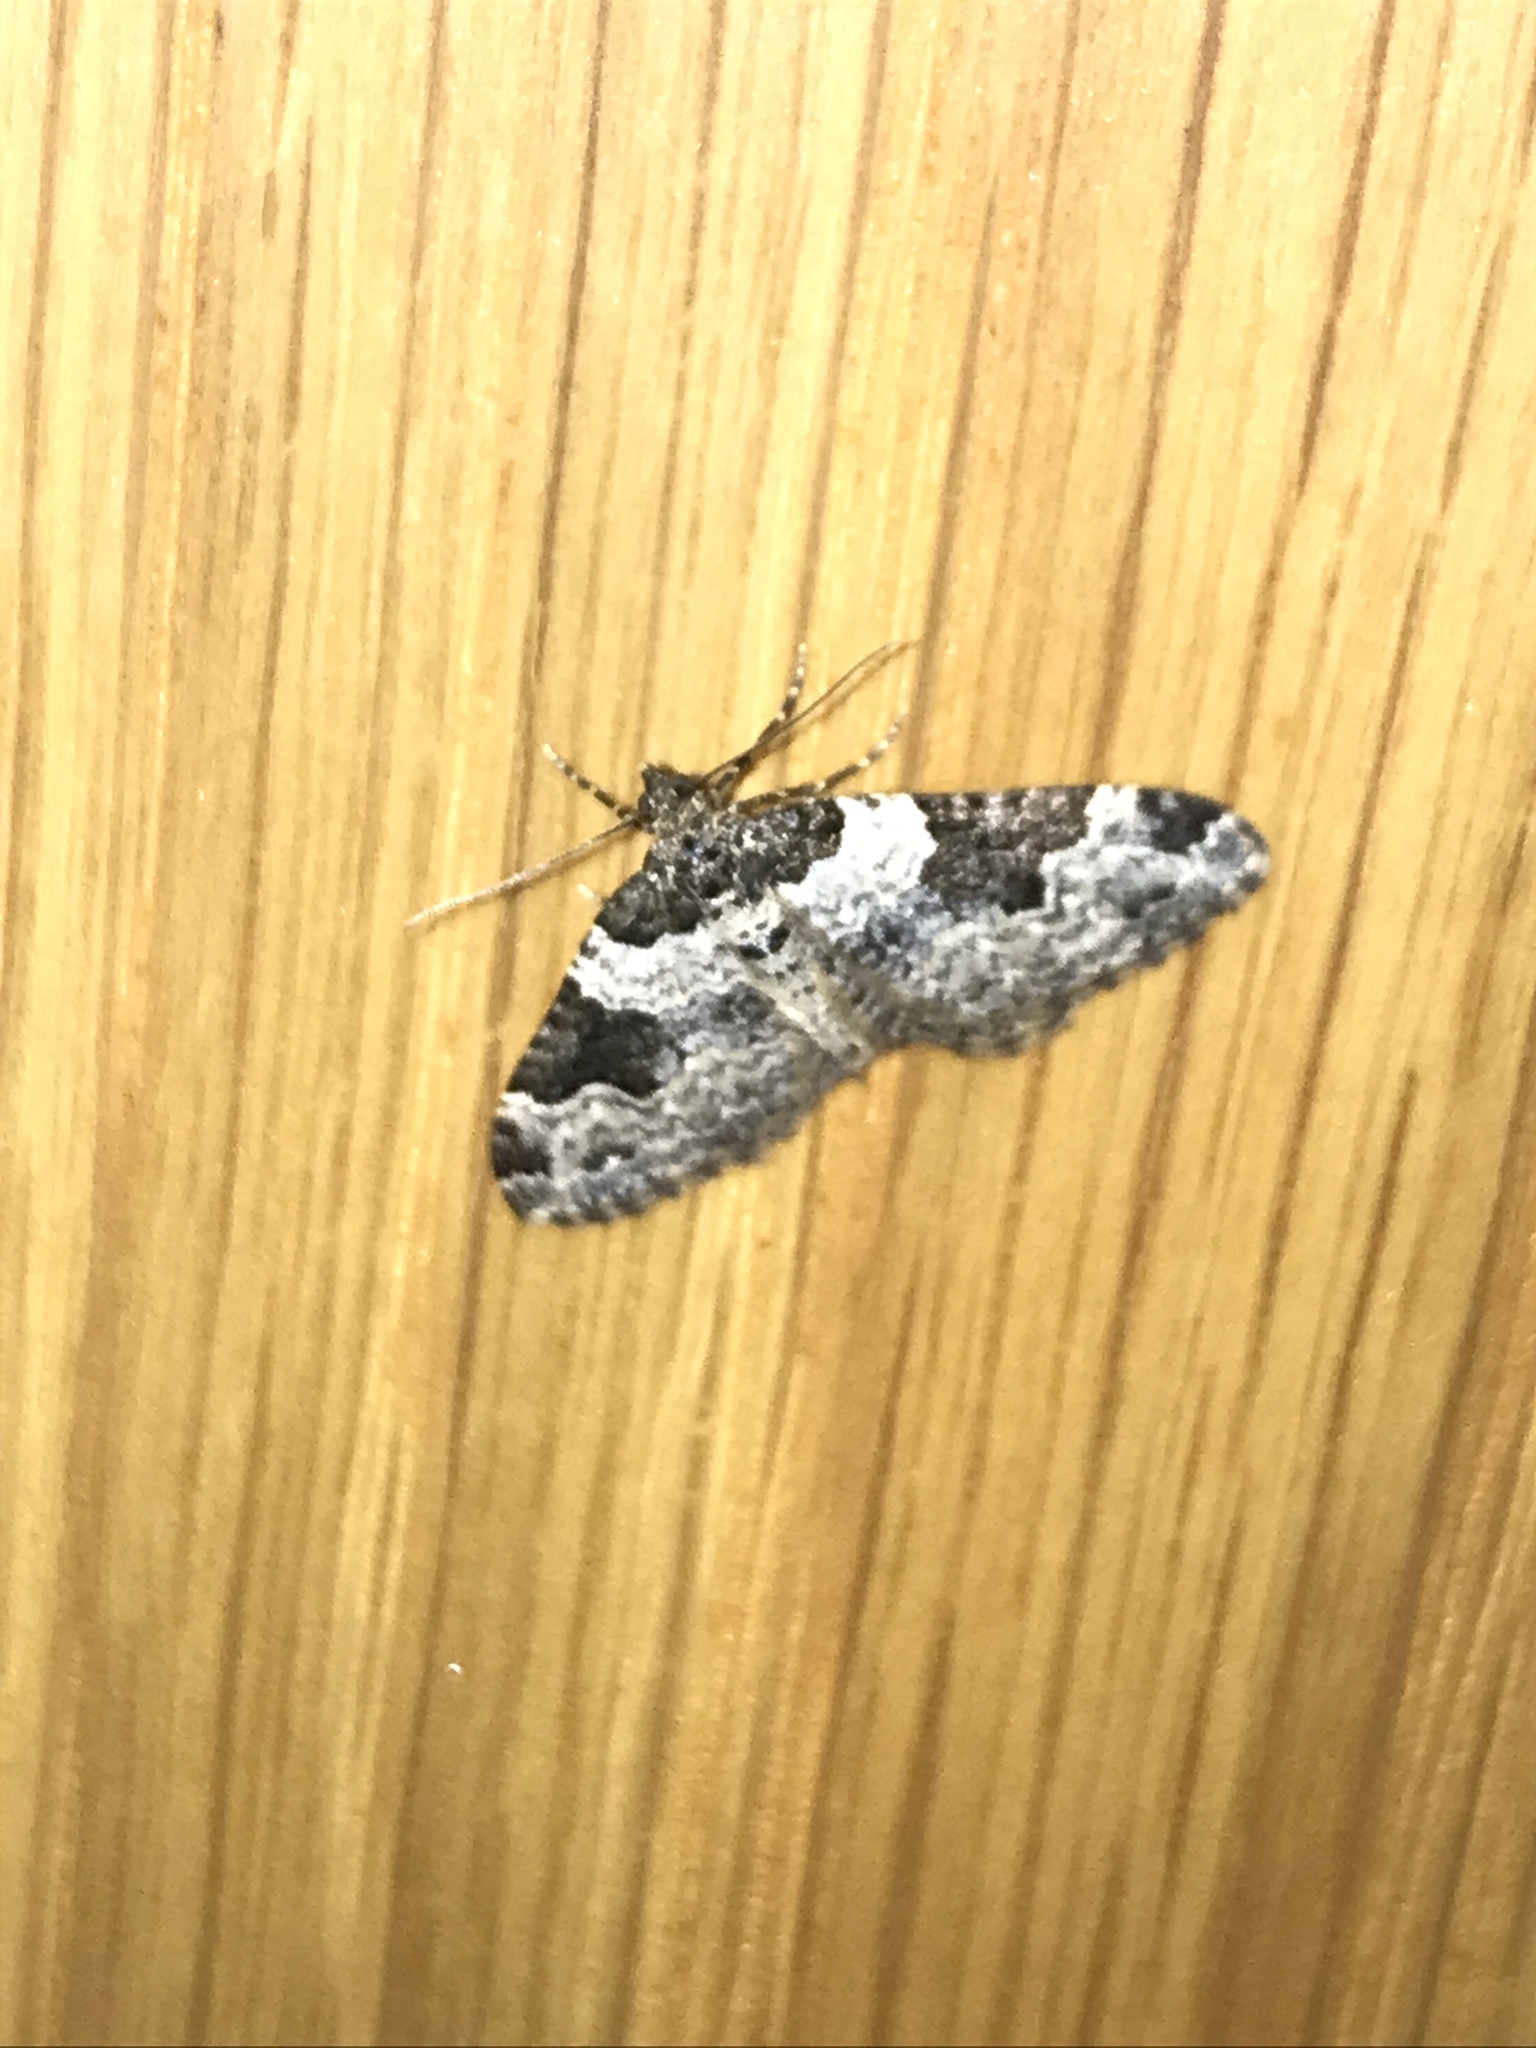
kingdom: Animalia
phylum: Arthropoda
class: Insecta
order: Lepidoptera
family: Geometridae
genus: Xanthorhoe
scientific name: Xanthorhoe fluctuata
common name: Garden carpet
